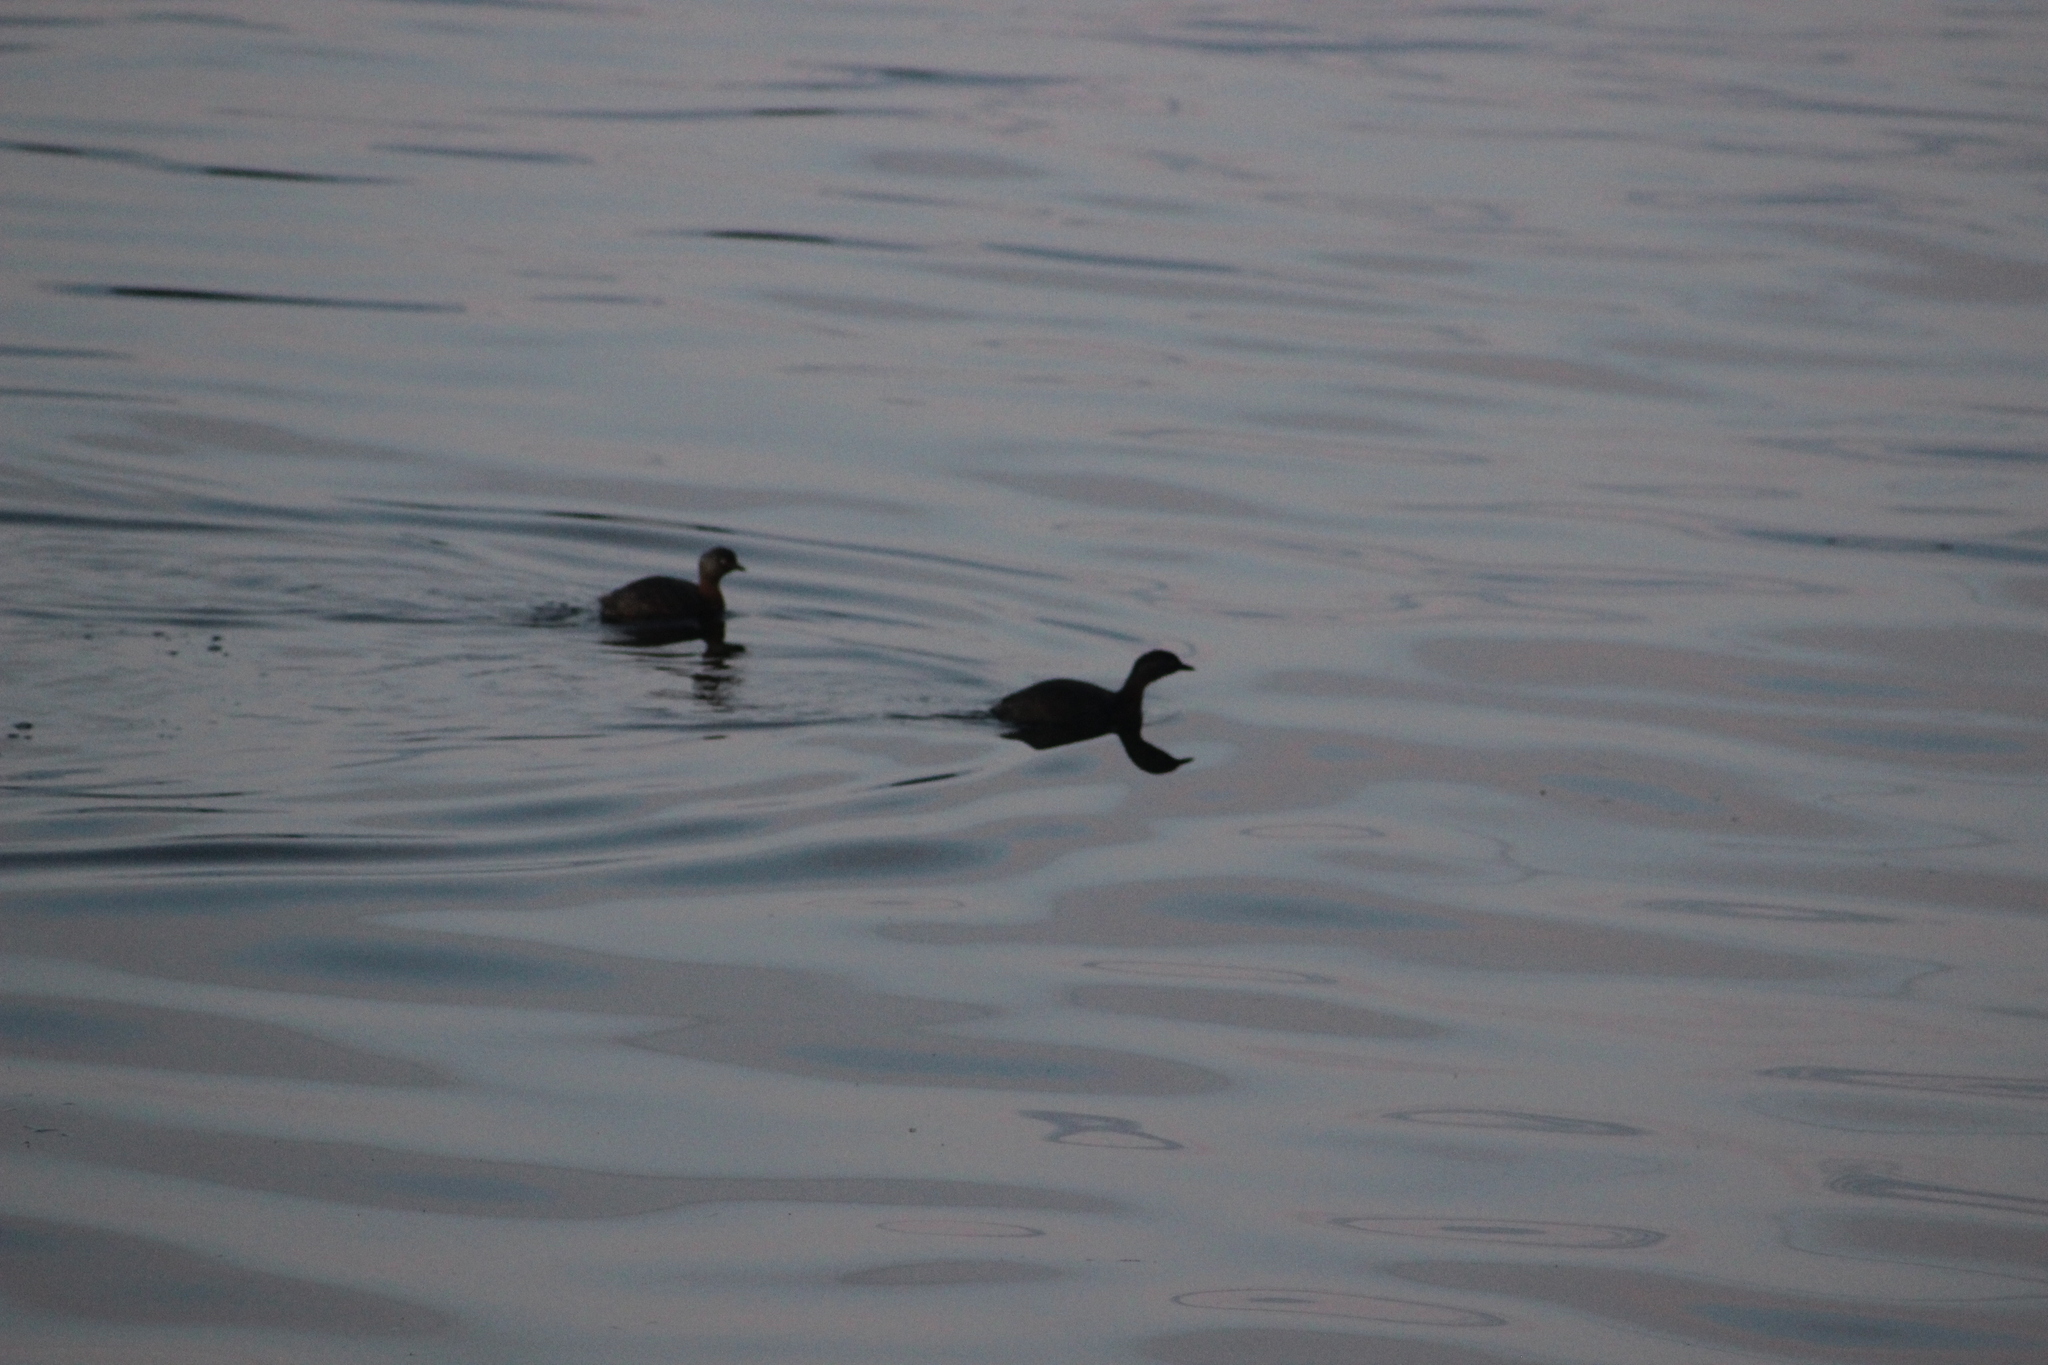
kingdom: Animalia
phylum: Chordata
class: Aves
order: Podicipediformes
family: Podicipedidae
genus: Poliocephalus
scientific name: Poliocephalus rufopectus
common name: New zealand grebe
